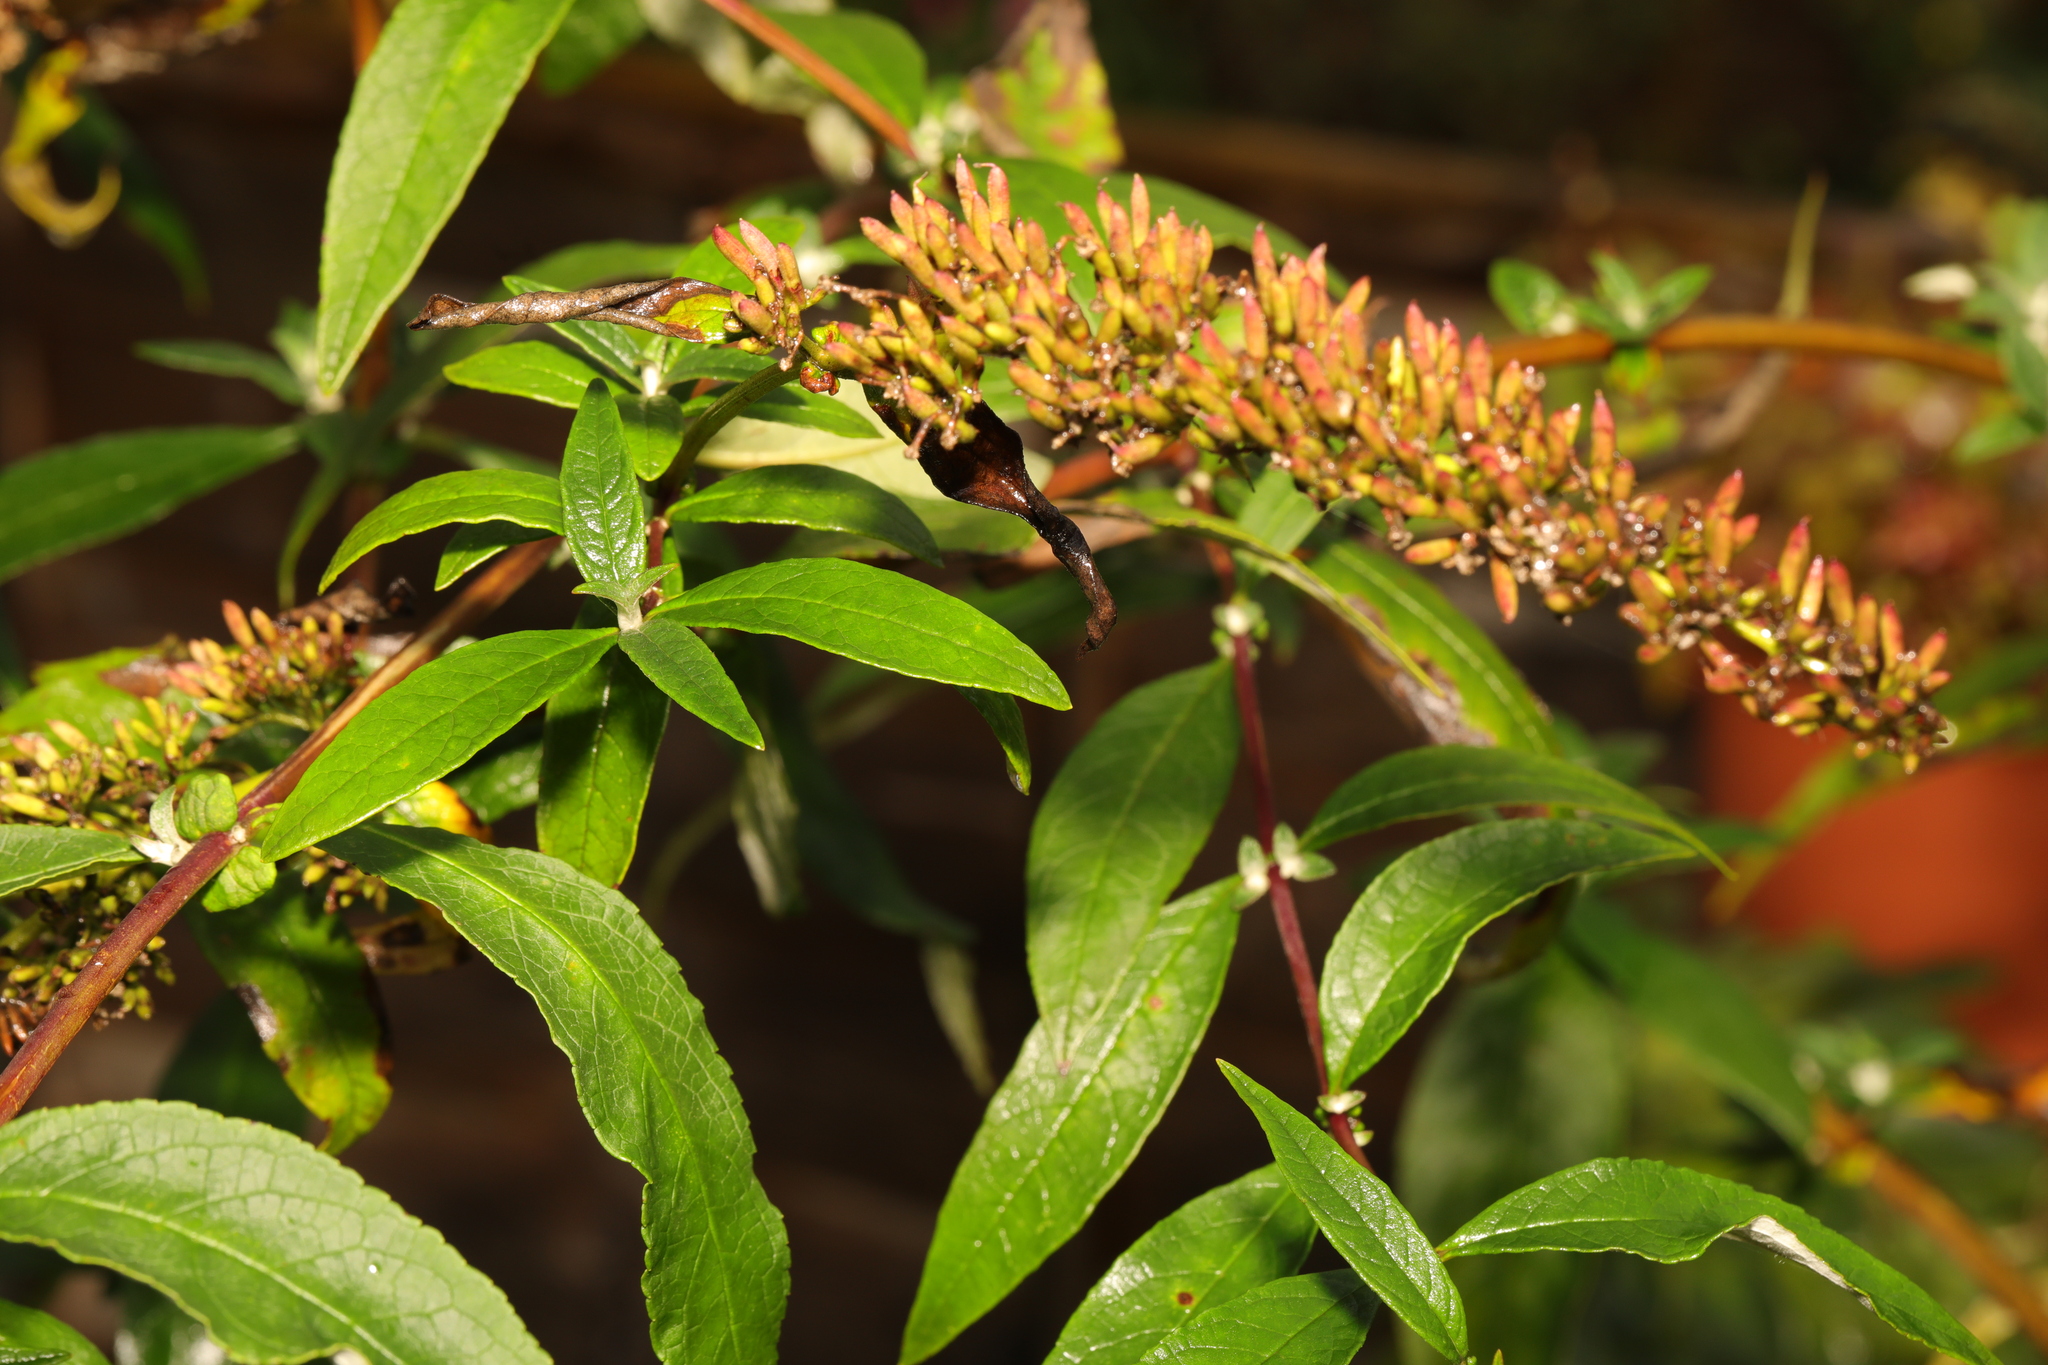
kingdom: Plantae
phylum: Tracheophyta
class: Magnoliopsida
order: Lamiales
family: Scrophulariaceae
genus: Buddleja
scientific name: Buddleja davidii
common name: Butterfly-bush
